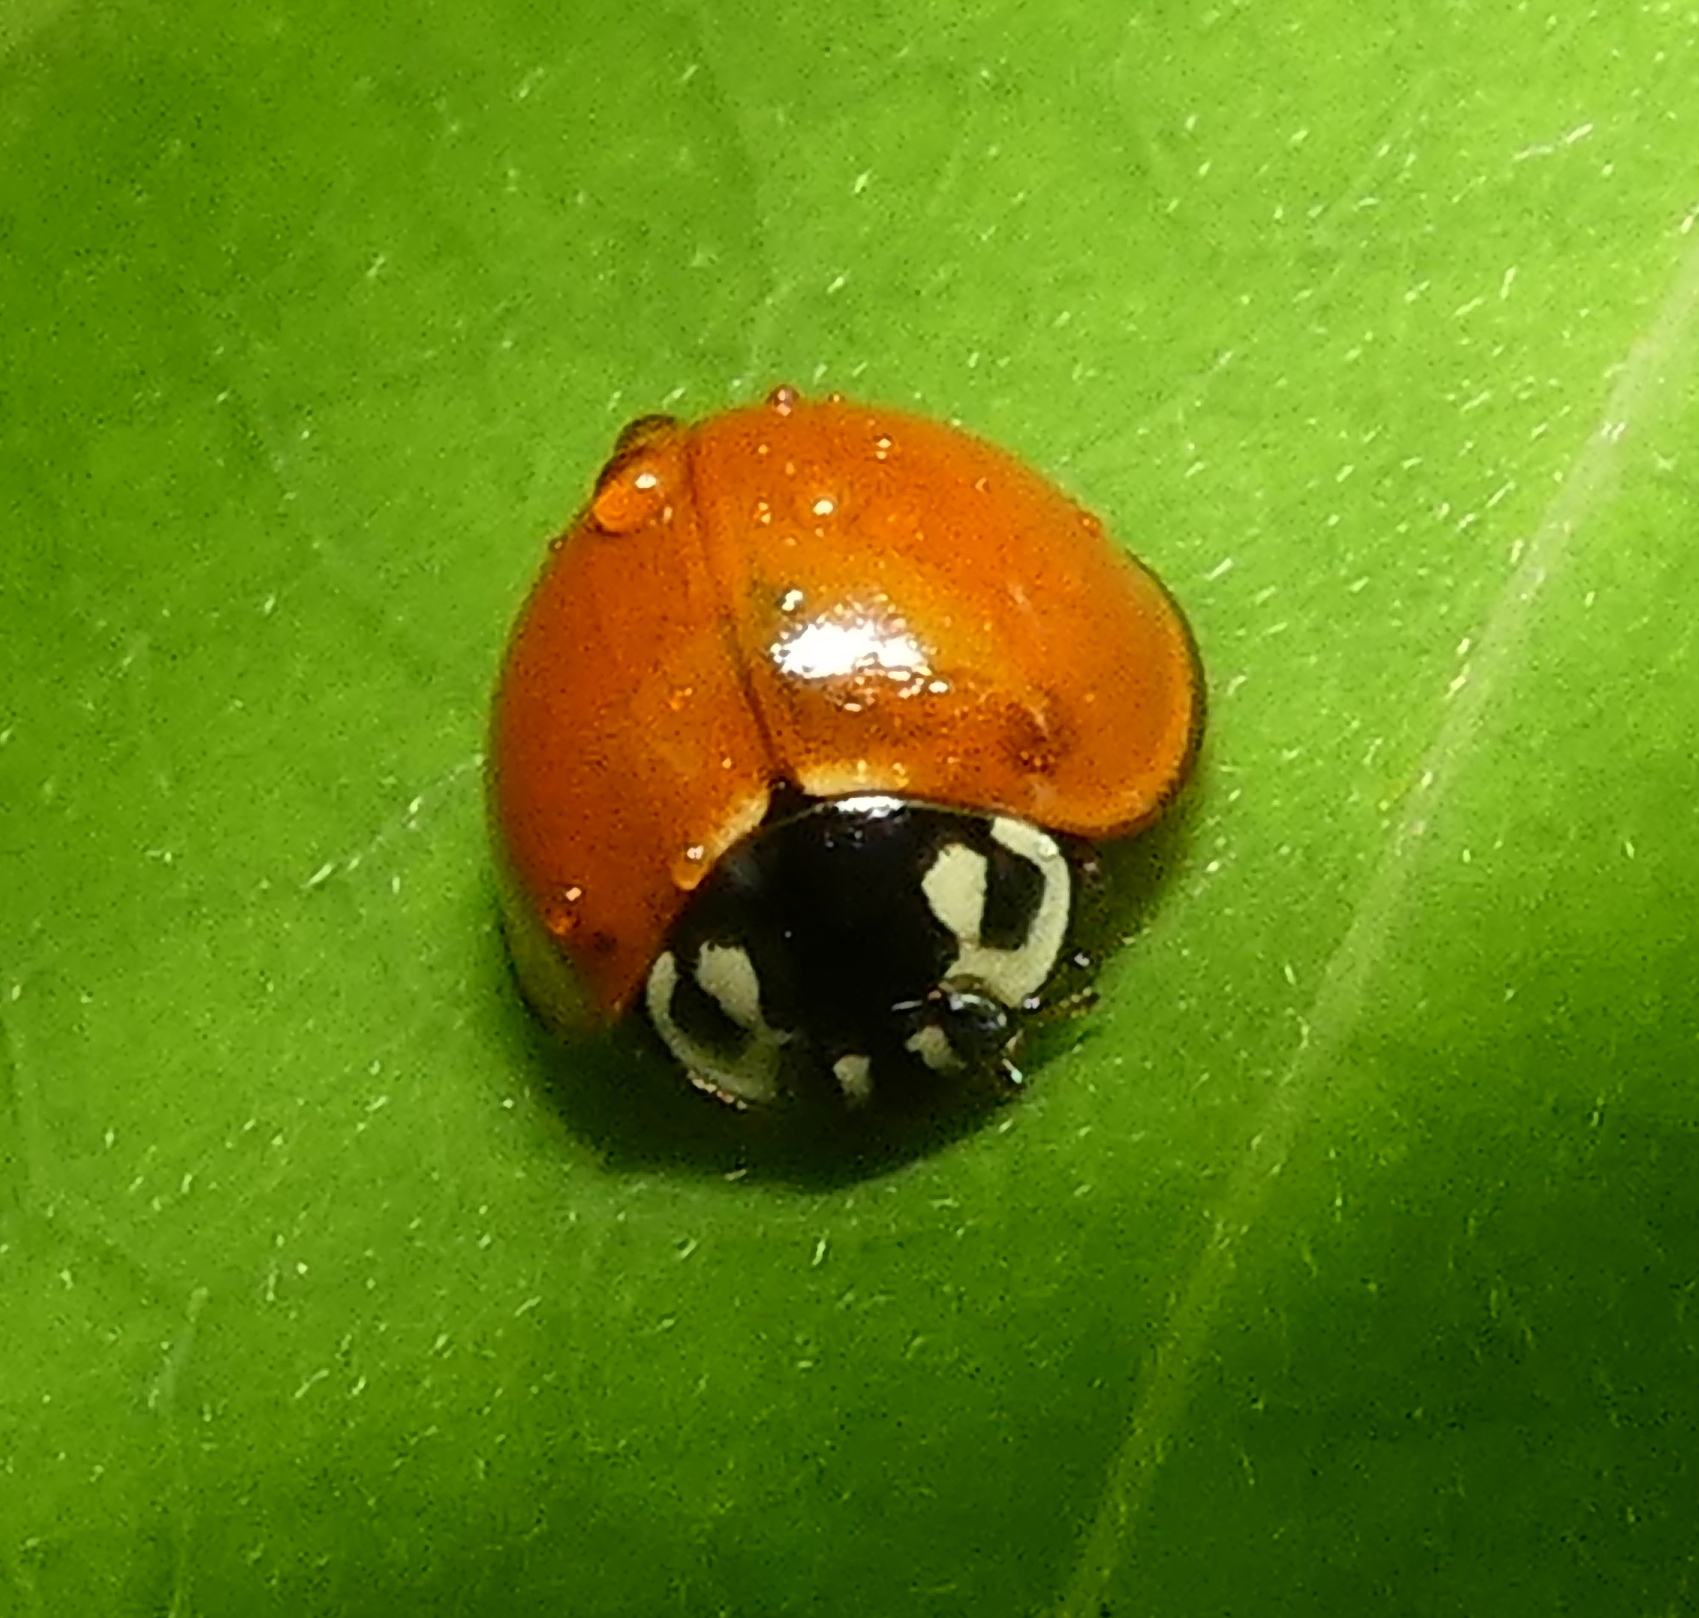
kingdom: Animalia
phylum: Arthropoda
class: Insecta
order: Coleoptera
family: Coccinellidae
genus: Cycloneda
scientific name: Cycloneda sanguinea
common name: Ladybird beetle
